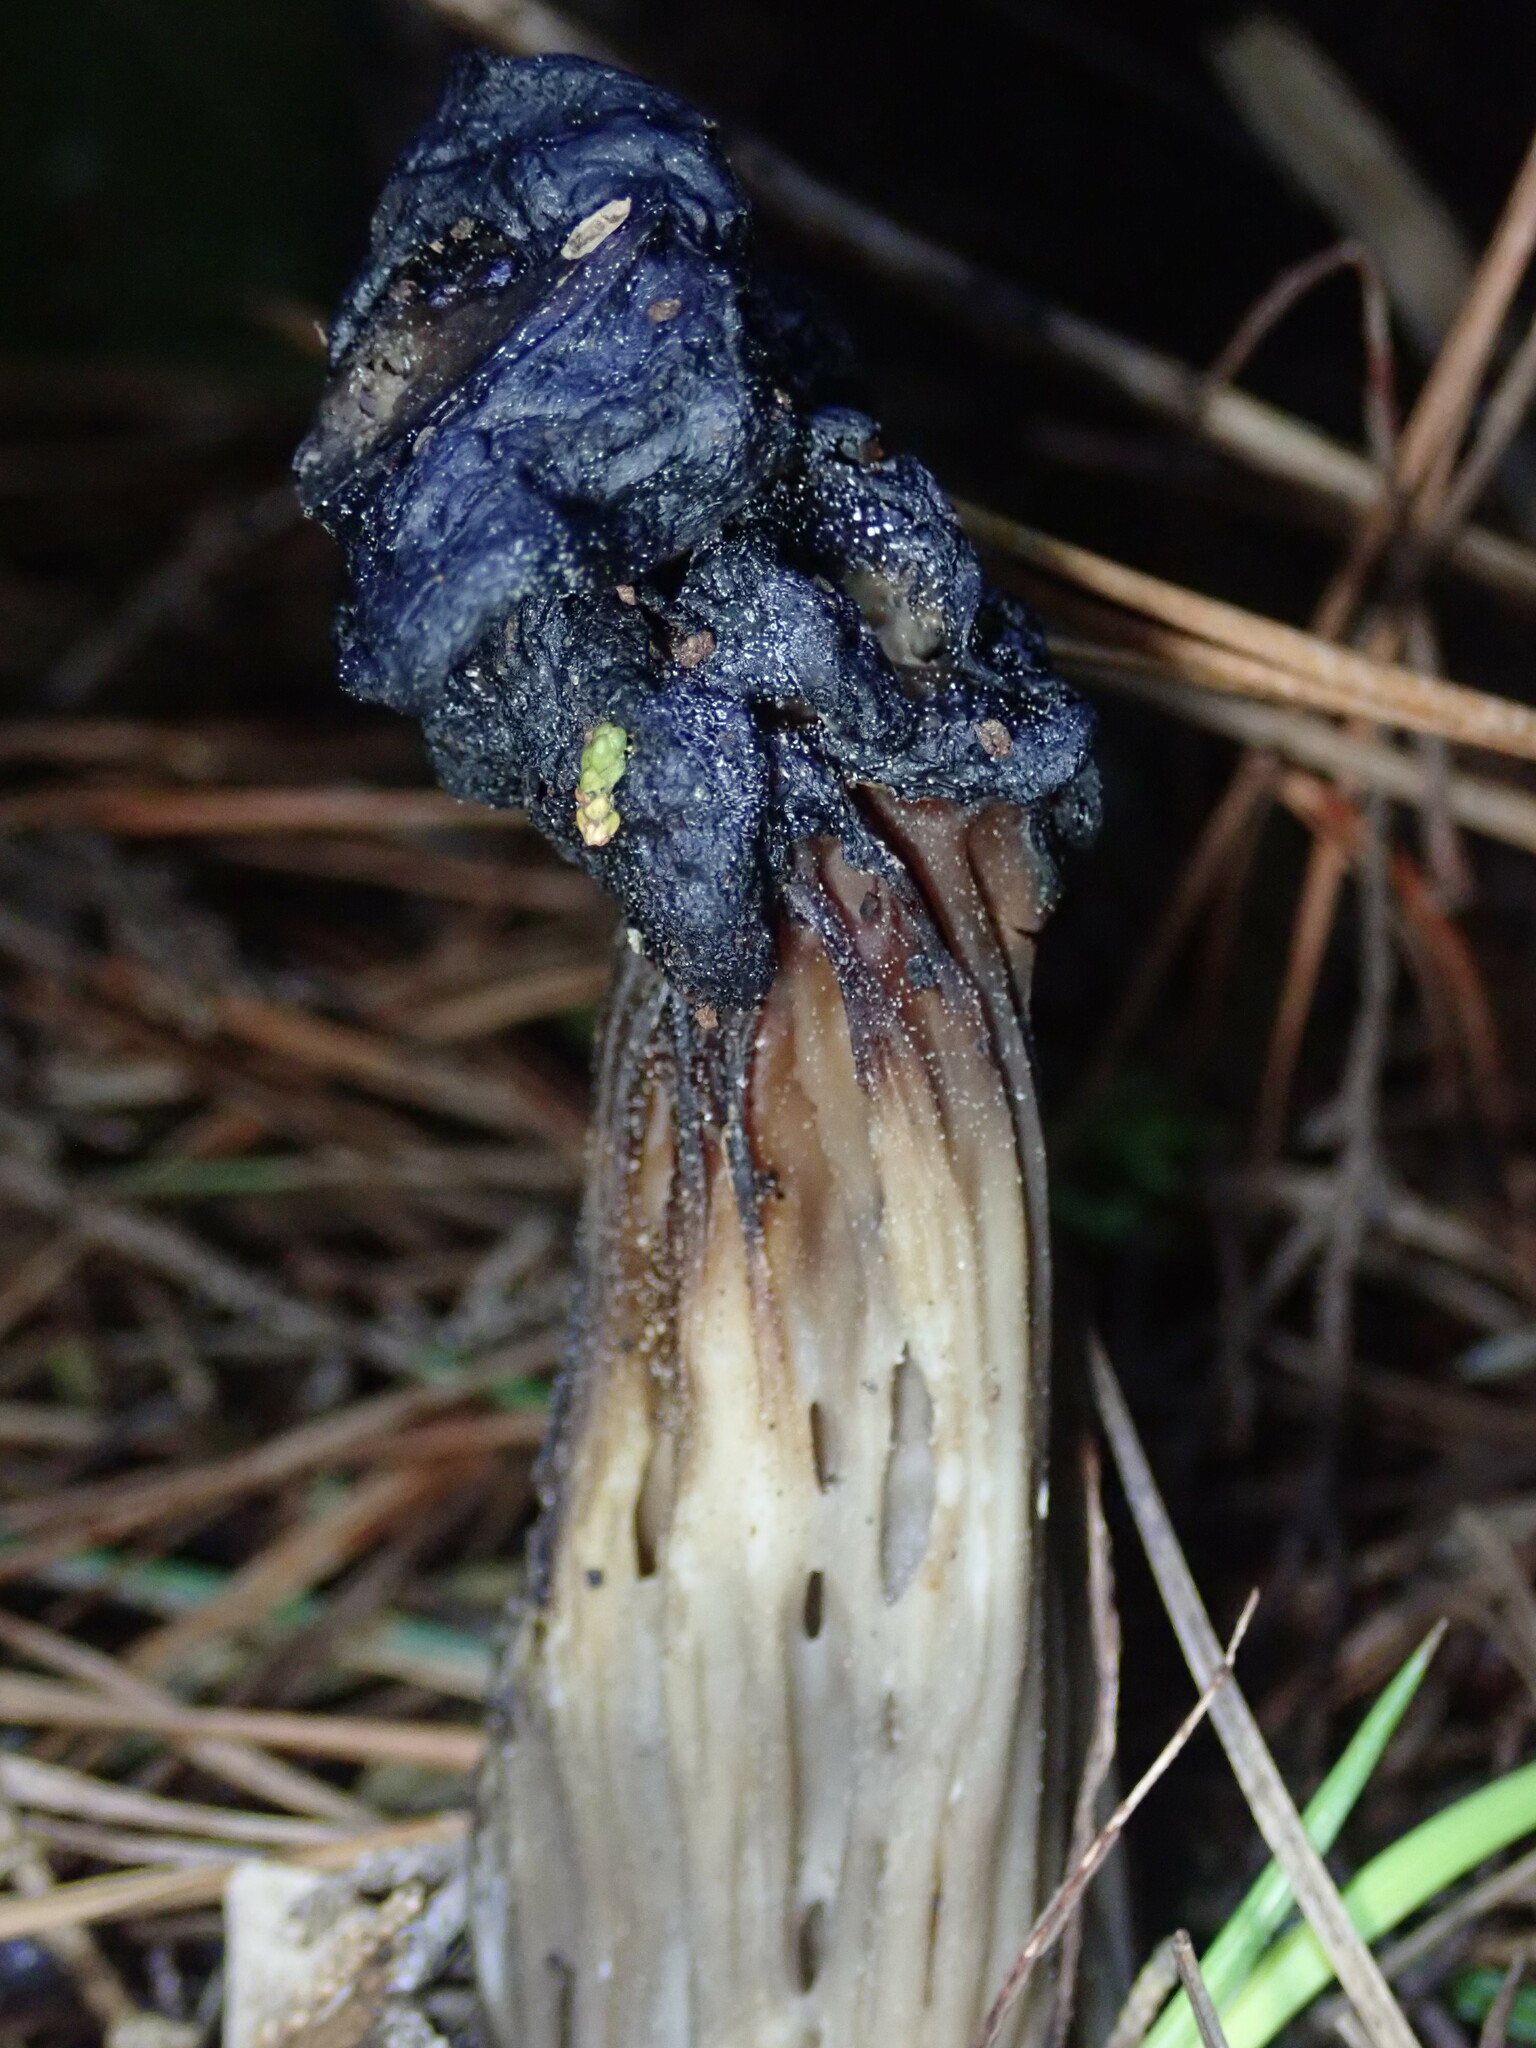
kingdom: Fungi
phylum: Ascomycota
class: Pezizomycetes
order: Pezizales
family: Helvellaceae
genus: Helvella
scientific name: Helvella vespertina
